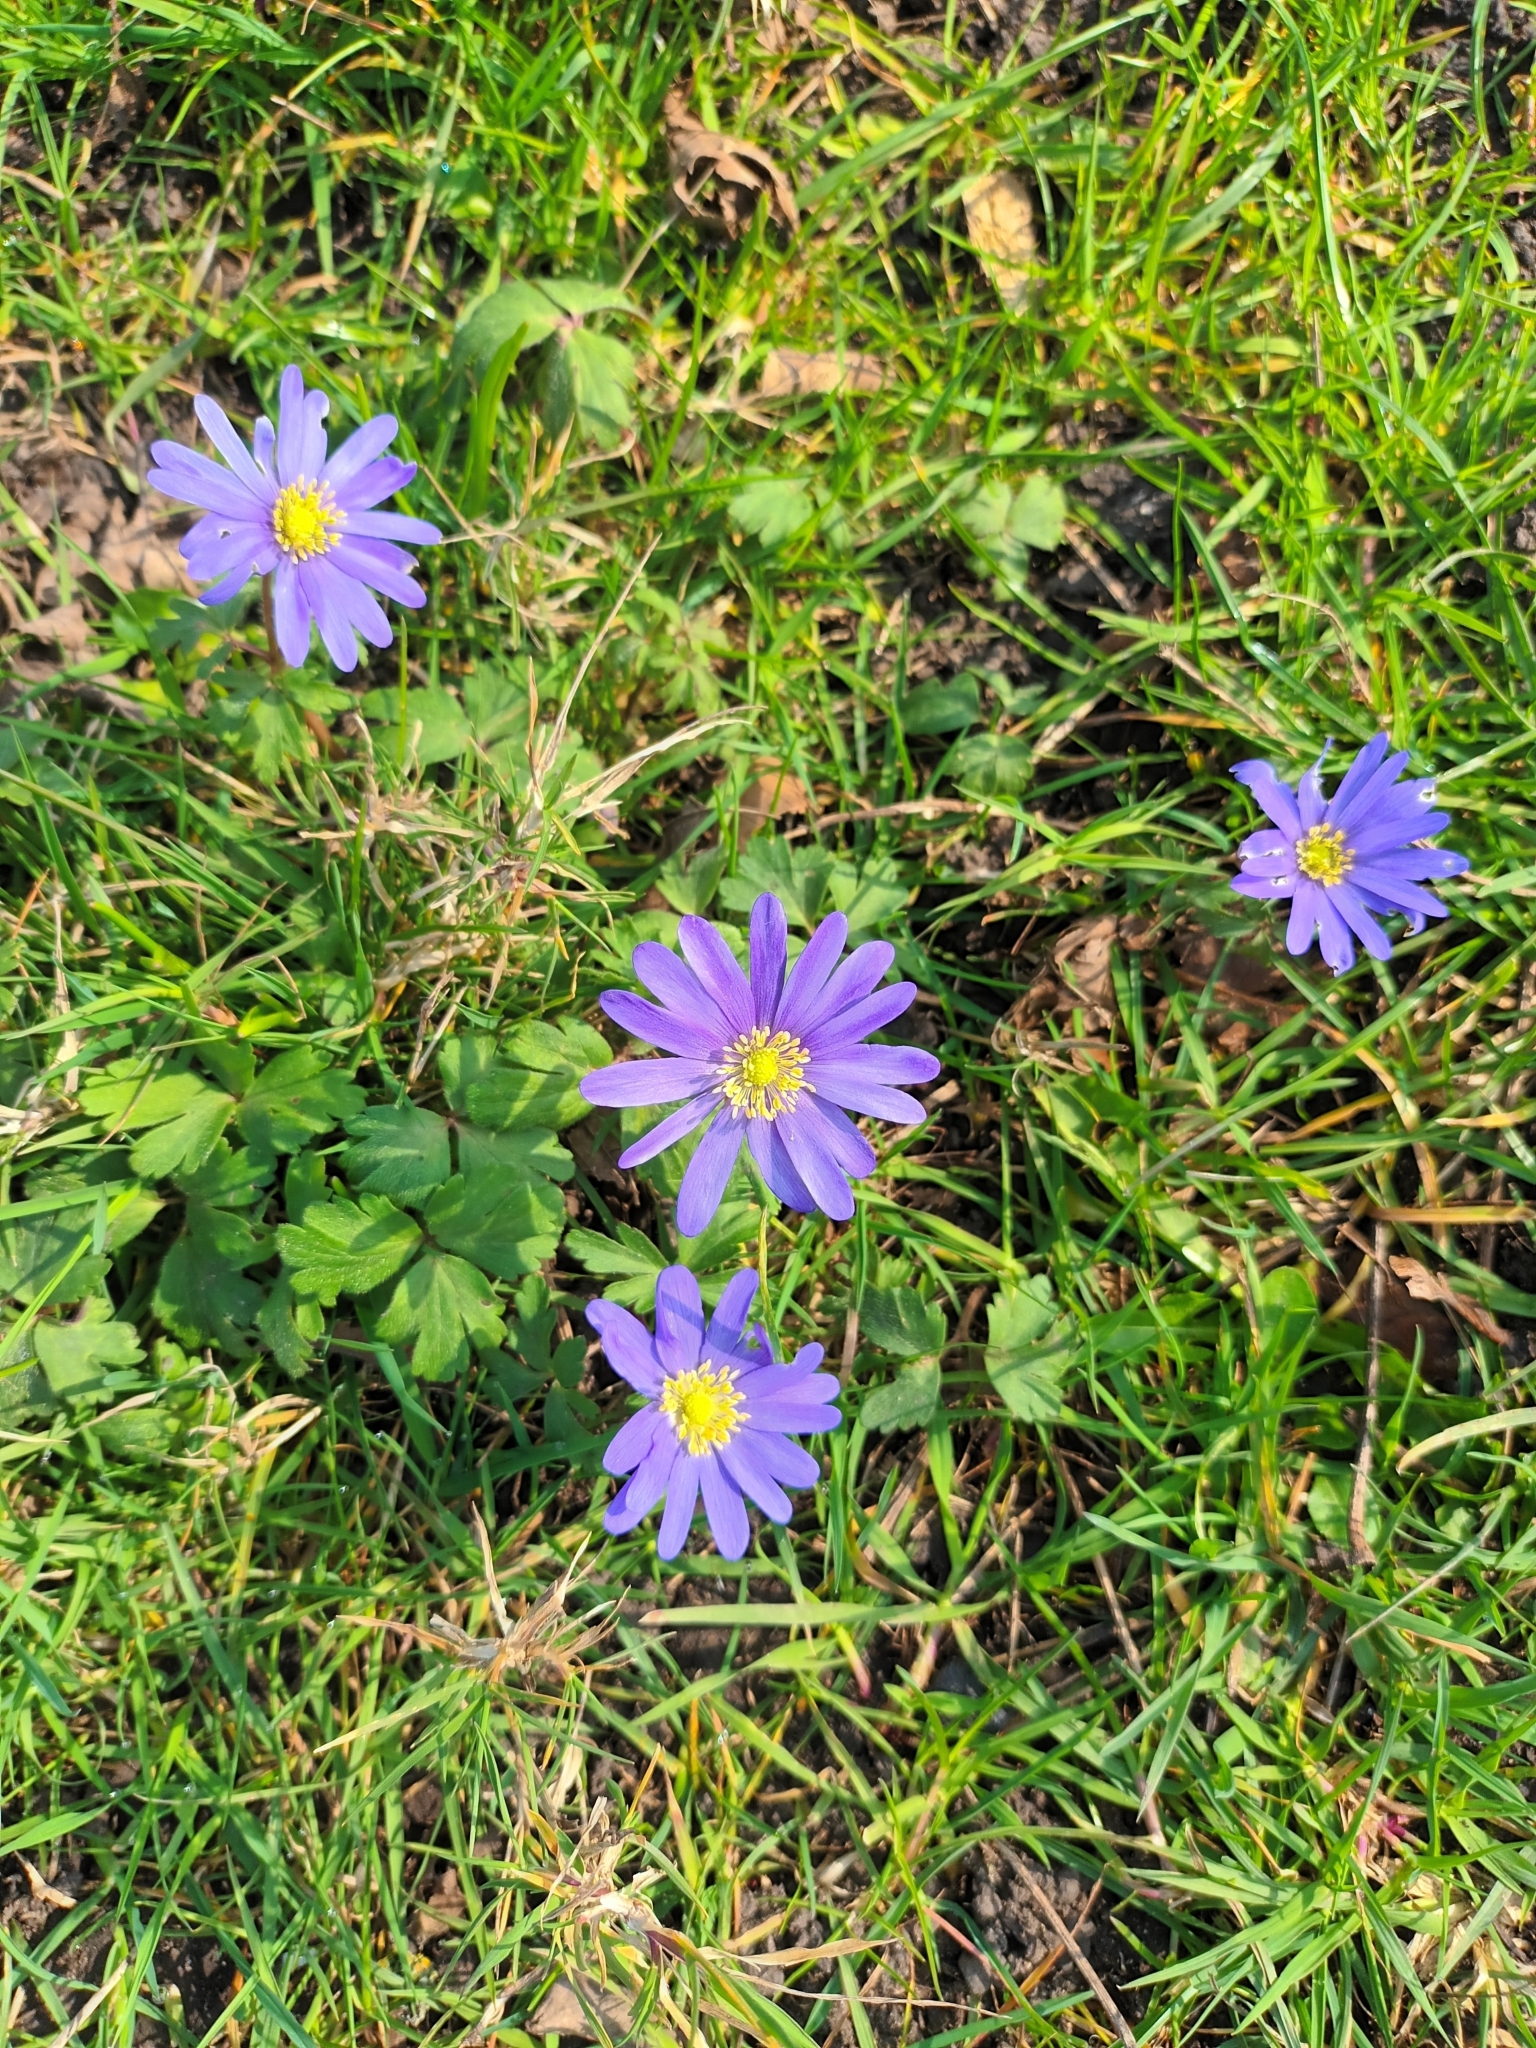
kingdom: Plantae
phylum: Tracheophyta
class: Magnoliopsida
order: Ranunculales
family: Ranunculaceae
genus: Anemone
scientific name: Anemone blanda
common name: Balkan anemone
